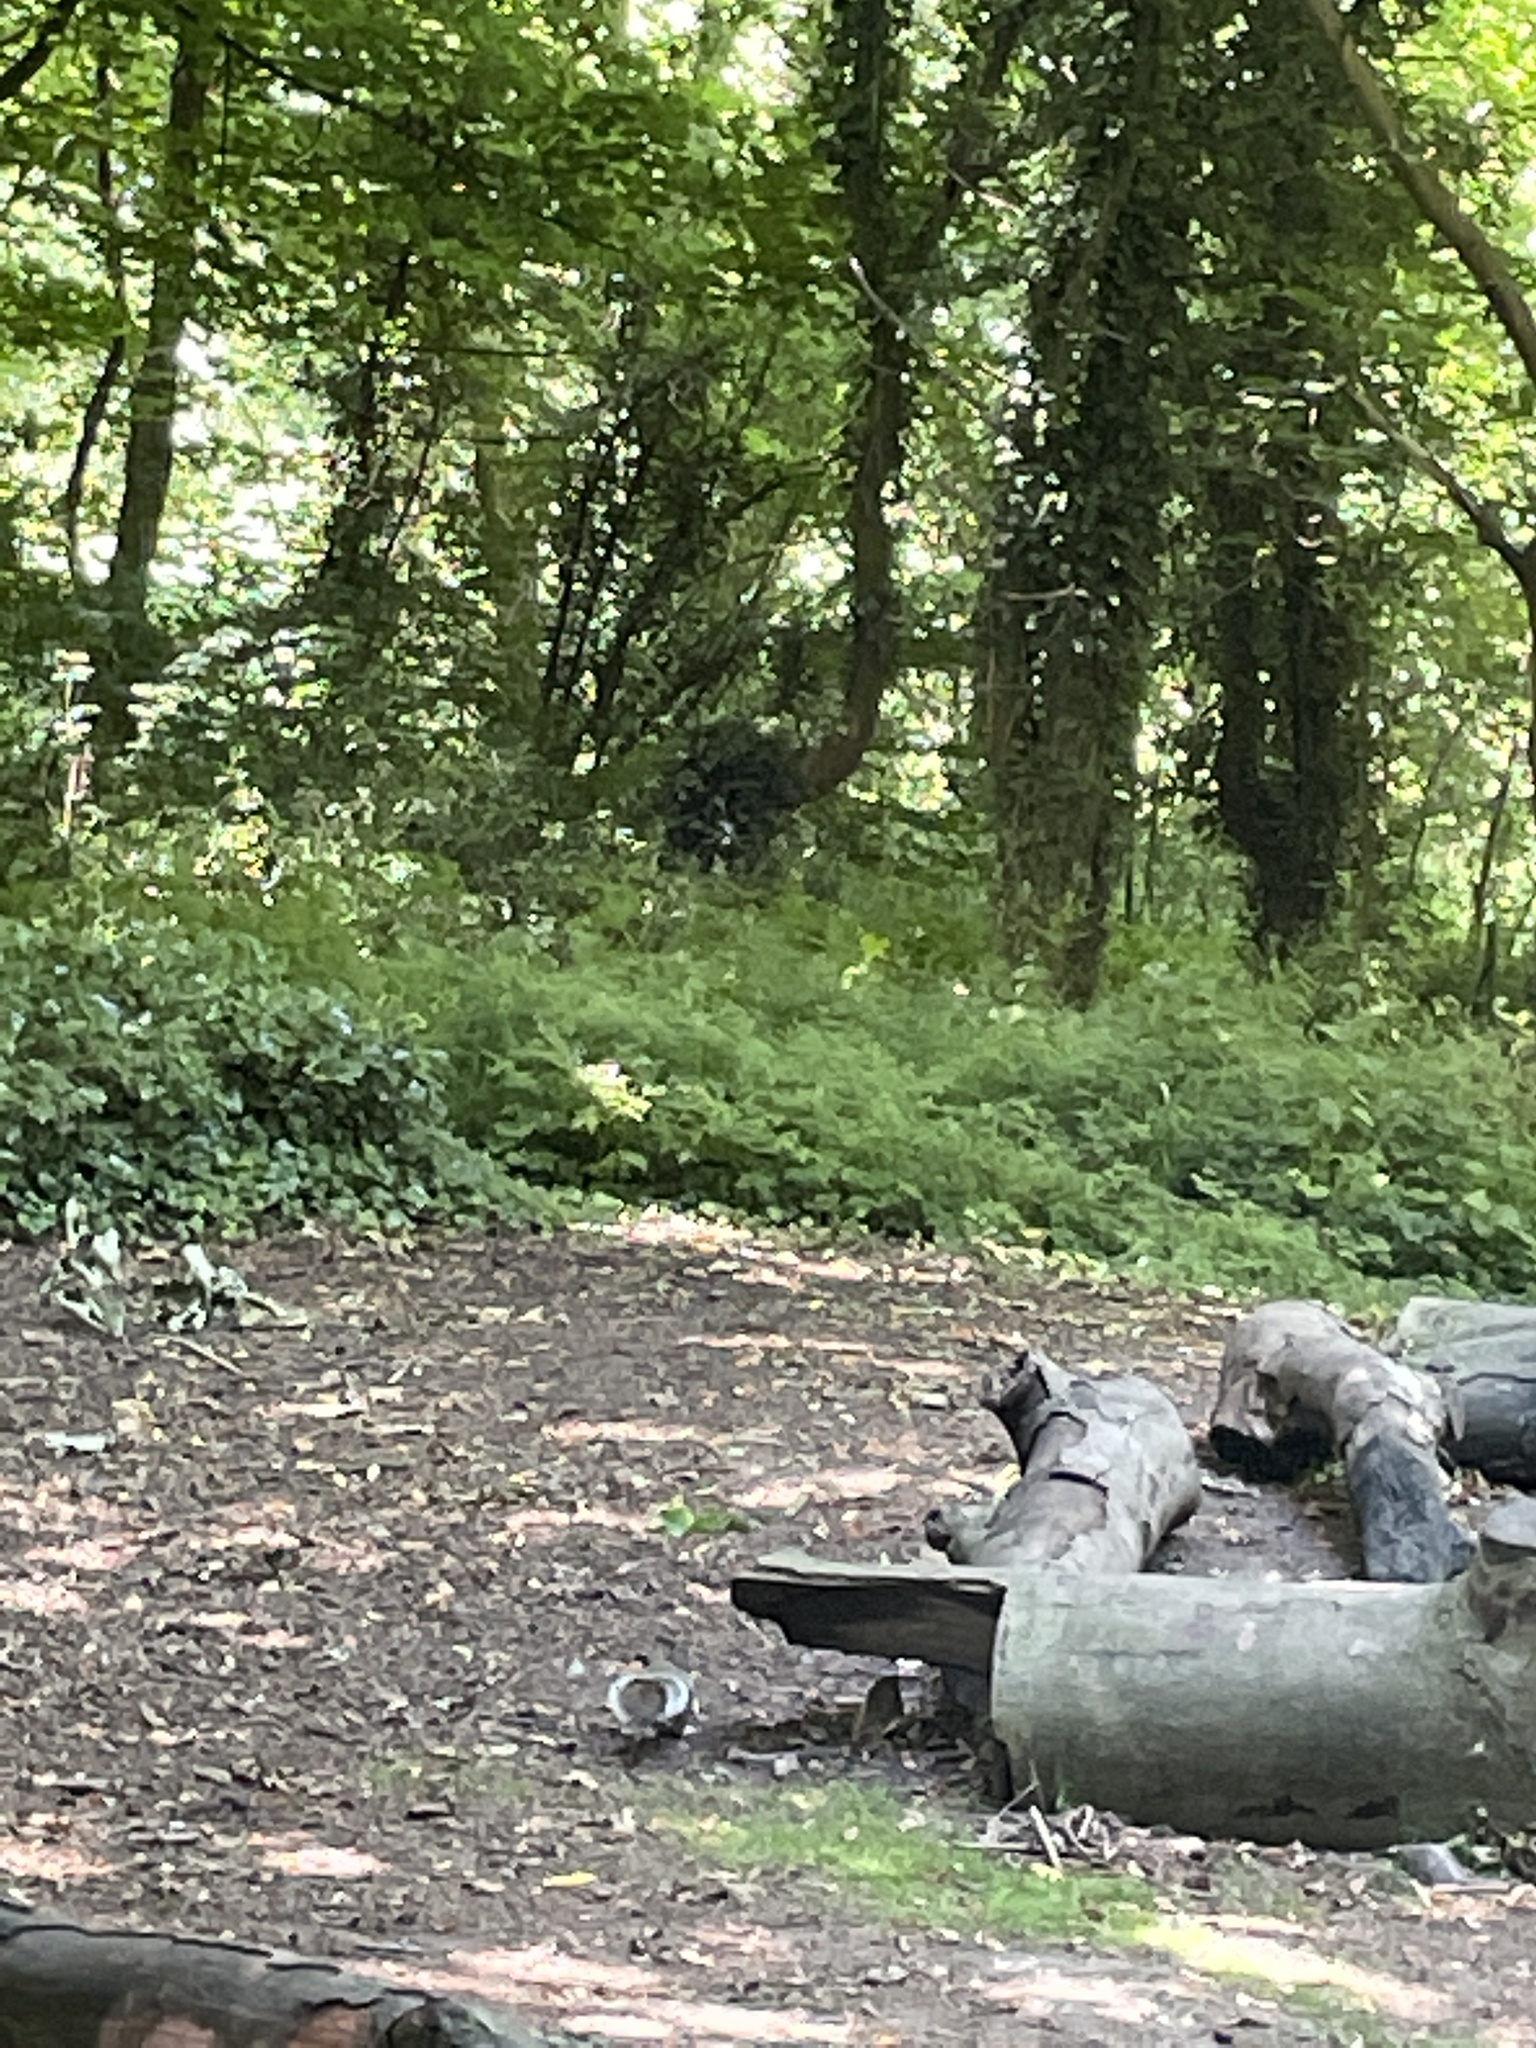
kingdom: Animalia
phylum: Chordata
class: Mammalia
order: Rodentia
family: Sciuridae
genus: Sciurus
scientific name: Sciurus carolinensis
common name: Eastern gray squirrel
